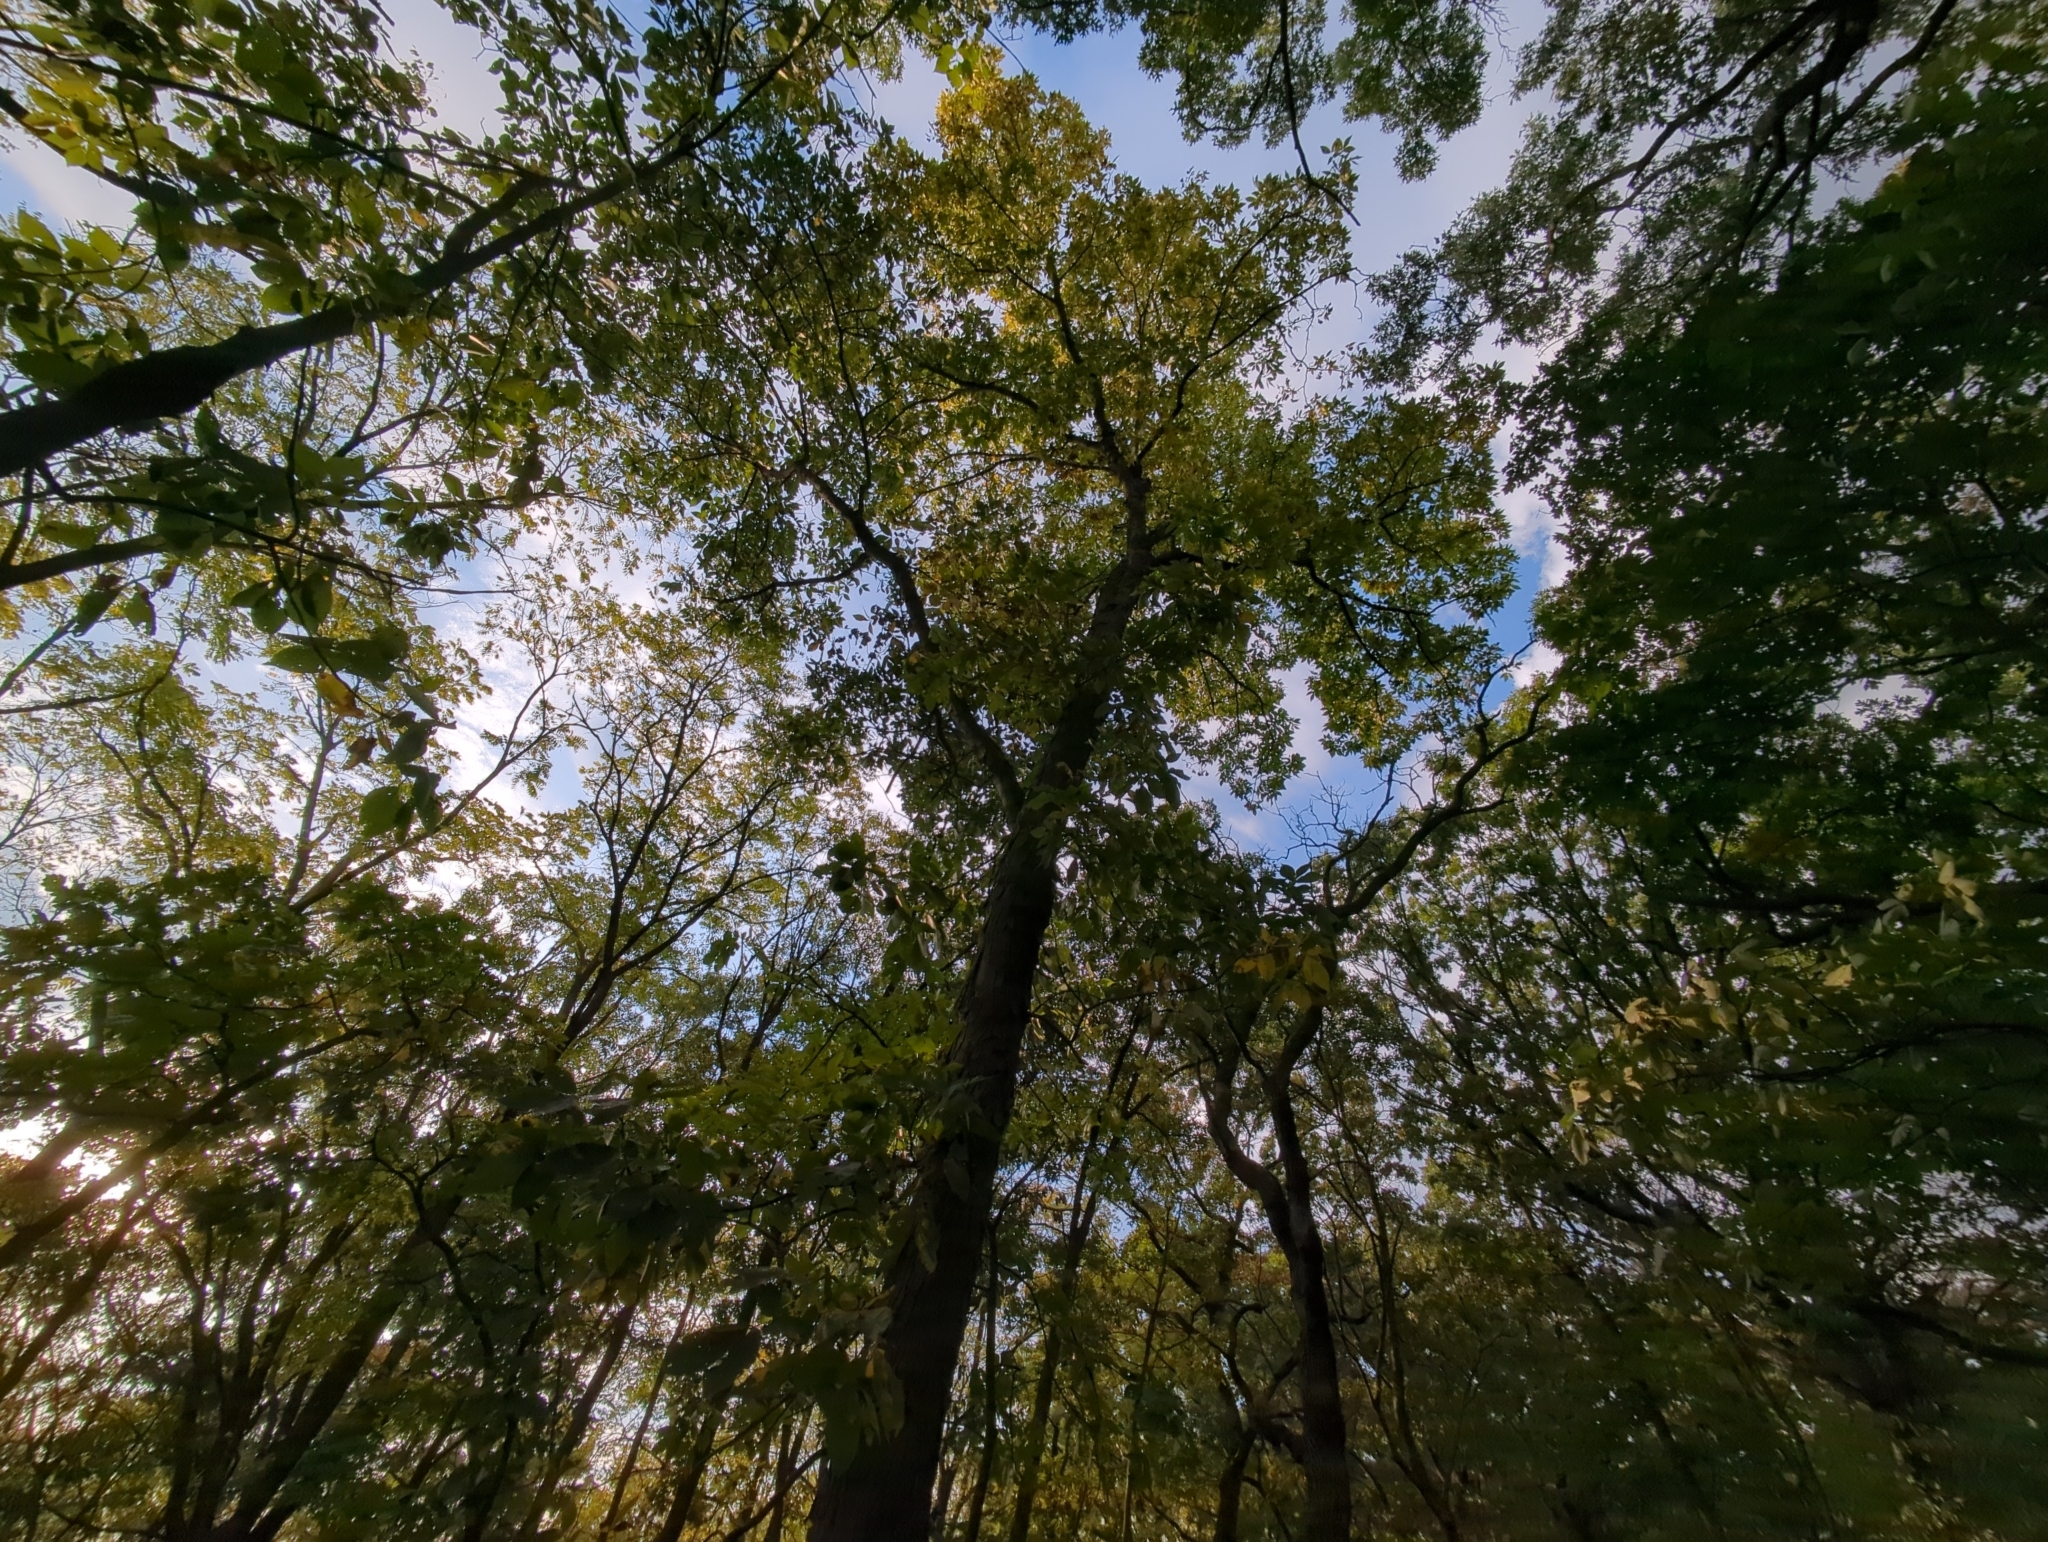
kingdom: Plantae
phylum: Tracheophyta
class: Magnoliopsida
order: Fagales
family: Juglandaceae
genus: Carya
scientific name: Carya ovata
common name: Shagbark hickory
